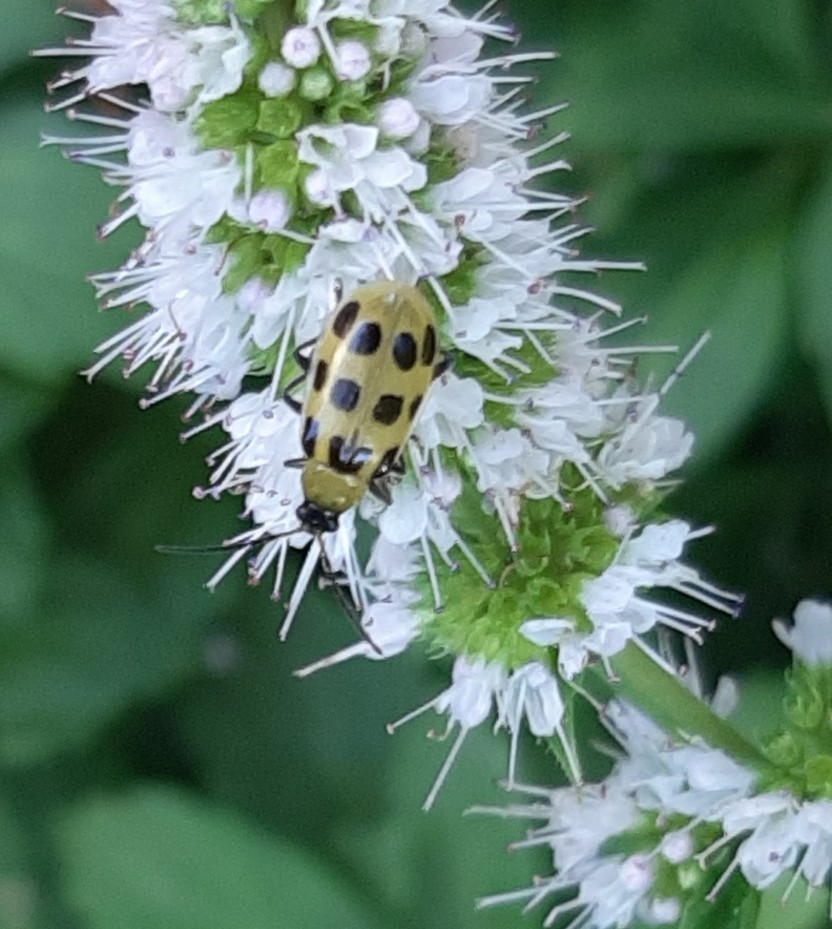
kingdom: Animalia
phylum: Arthropoda
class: Insecta
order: Coleoptera
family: Chrysomelidae
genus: Diabrotica
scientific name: Diabrotica undecimpunctata
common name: Spotted cucumber beetle
